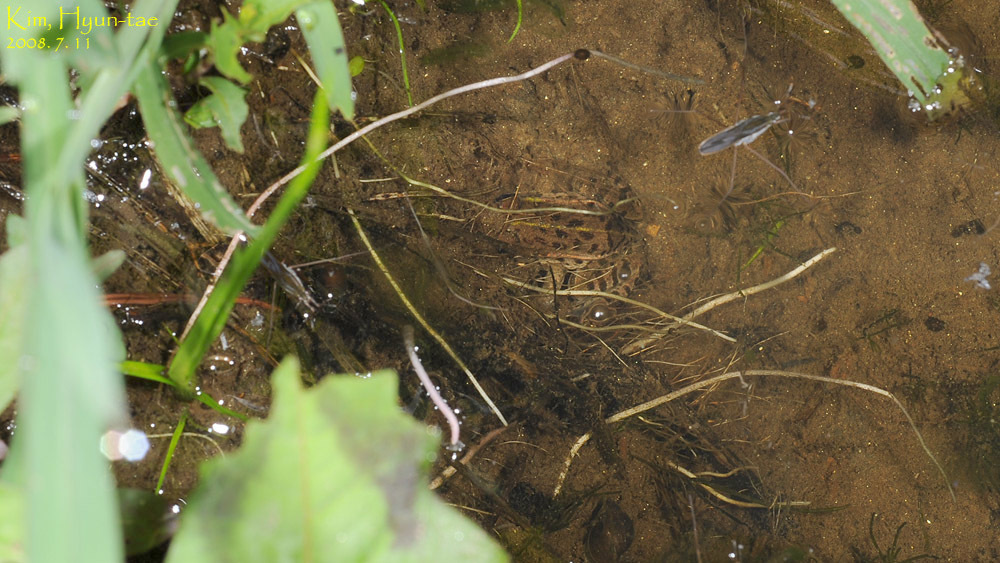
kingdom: Animalia
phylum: Chordata
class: Amphibia
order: Anura
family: Ranidae
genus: Pelophylax
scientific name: Pelophylax nigromaculatus
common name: Black-spotted pond frog
